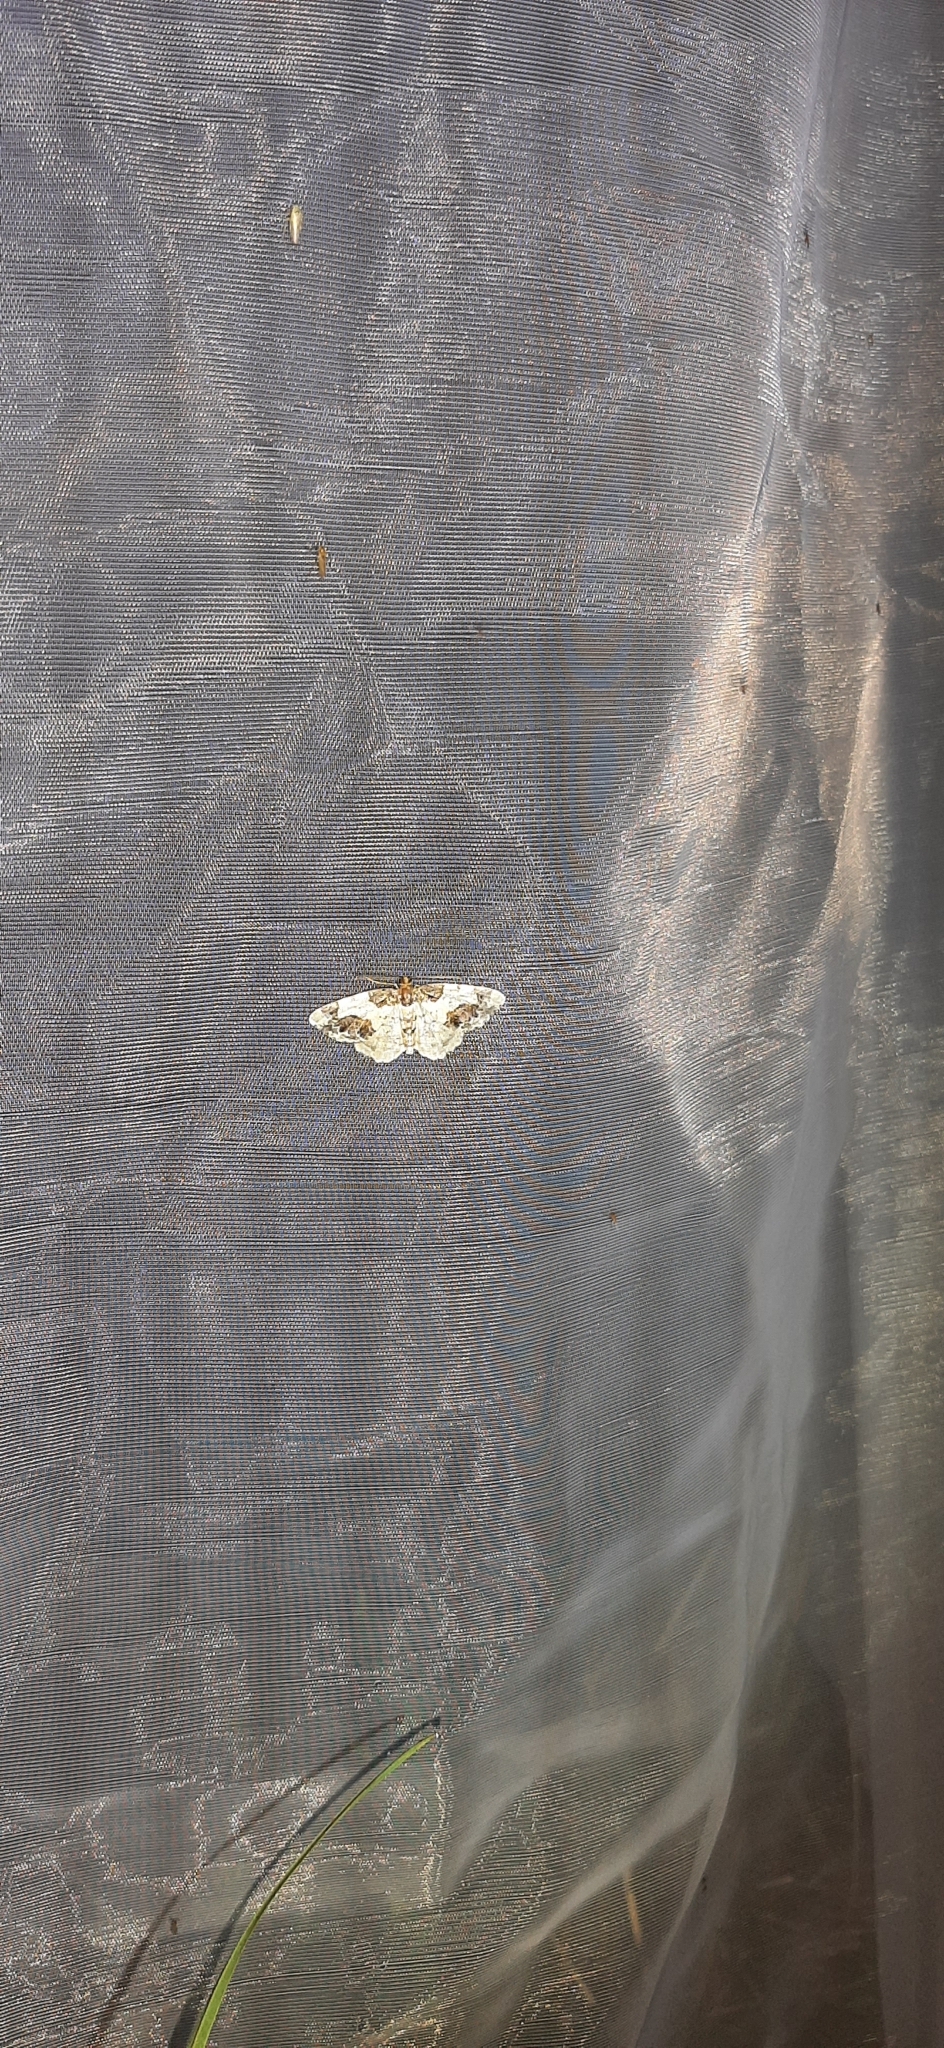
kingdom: Animalia
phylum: Arthropoda
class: Insecta
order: Lepidoptera
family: Geometridae
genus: Ligdia
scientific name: Ligdia adustata
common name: Scorched carpet
